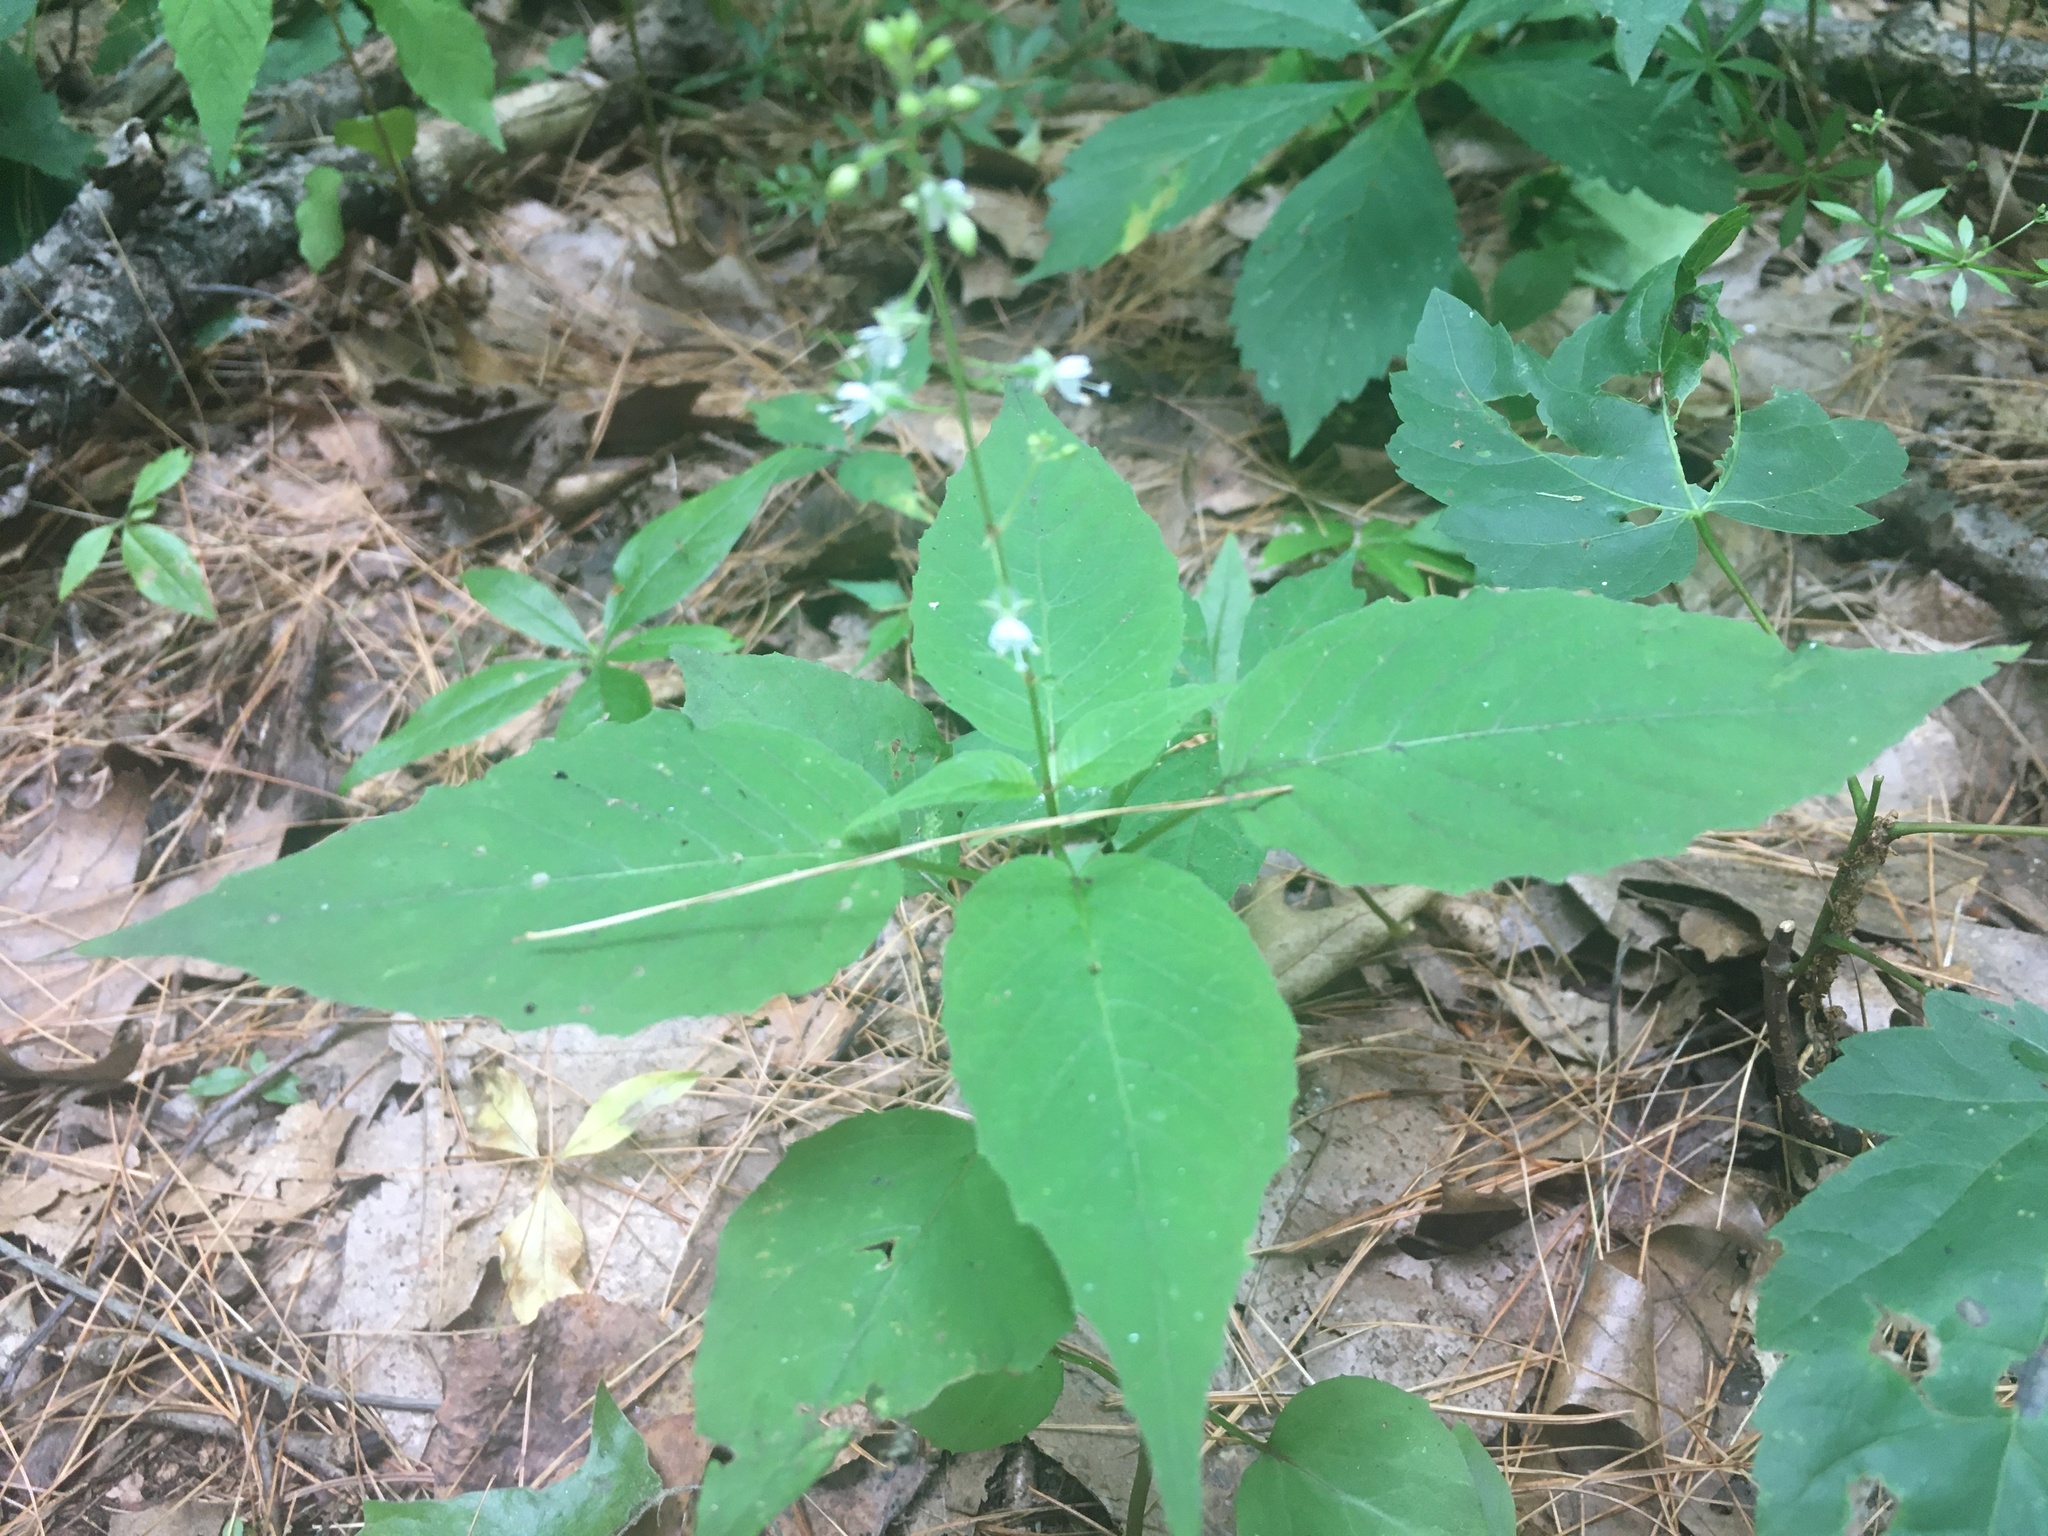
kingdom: Plantae
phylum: Tracheophyta
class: Magnoliopsida
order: Myrtales
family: Onagraceae
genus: Circaea
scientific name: Circaea canadensis
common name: Broad-leaved enchanter's nightshade
